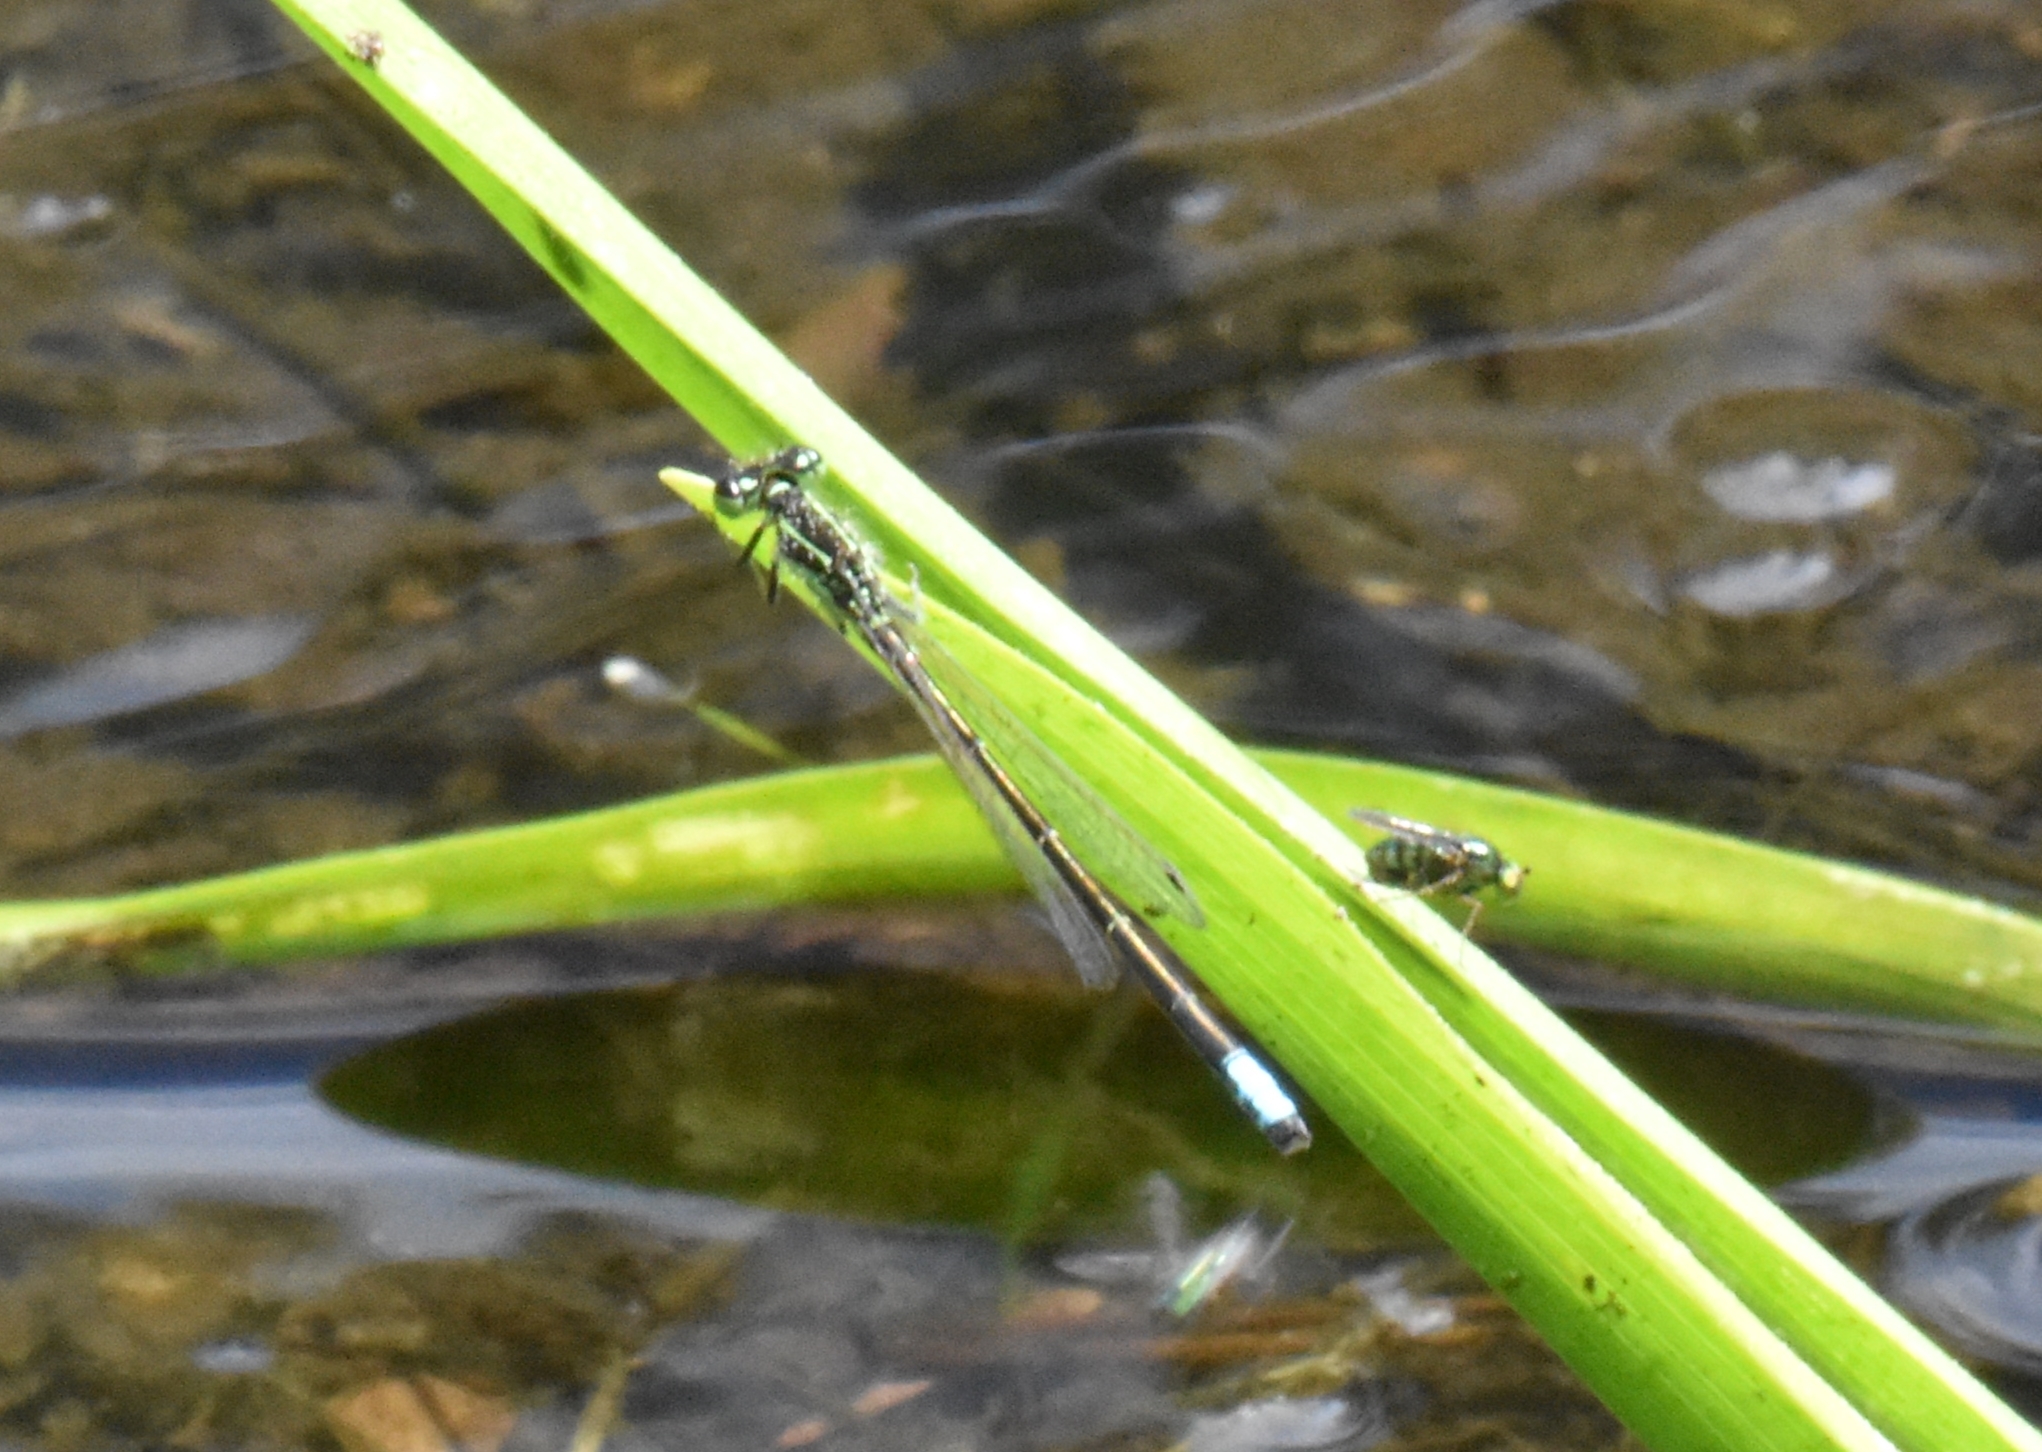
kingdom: Animalia
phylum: Arthropoda
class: Insecta
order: Odonata
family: Coenagrionidae
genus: Ischnura
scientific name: Ischnura verticalis
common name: Eastern forktail
